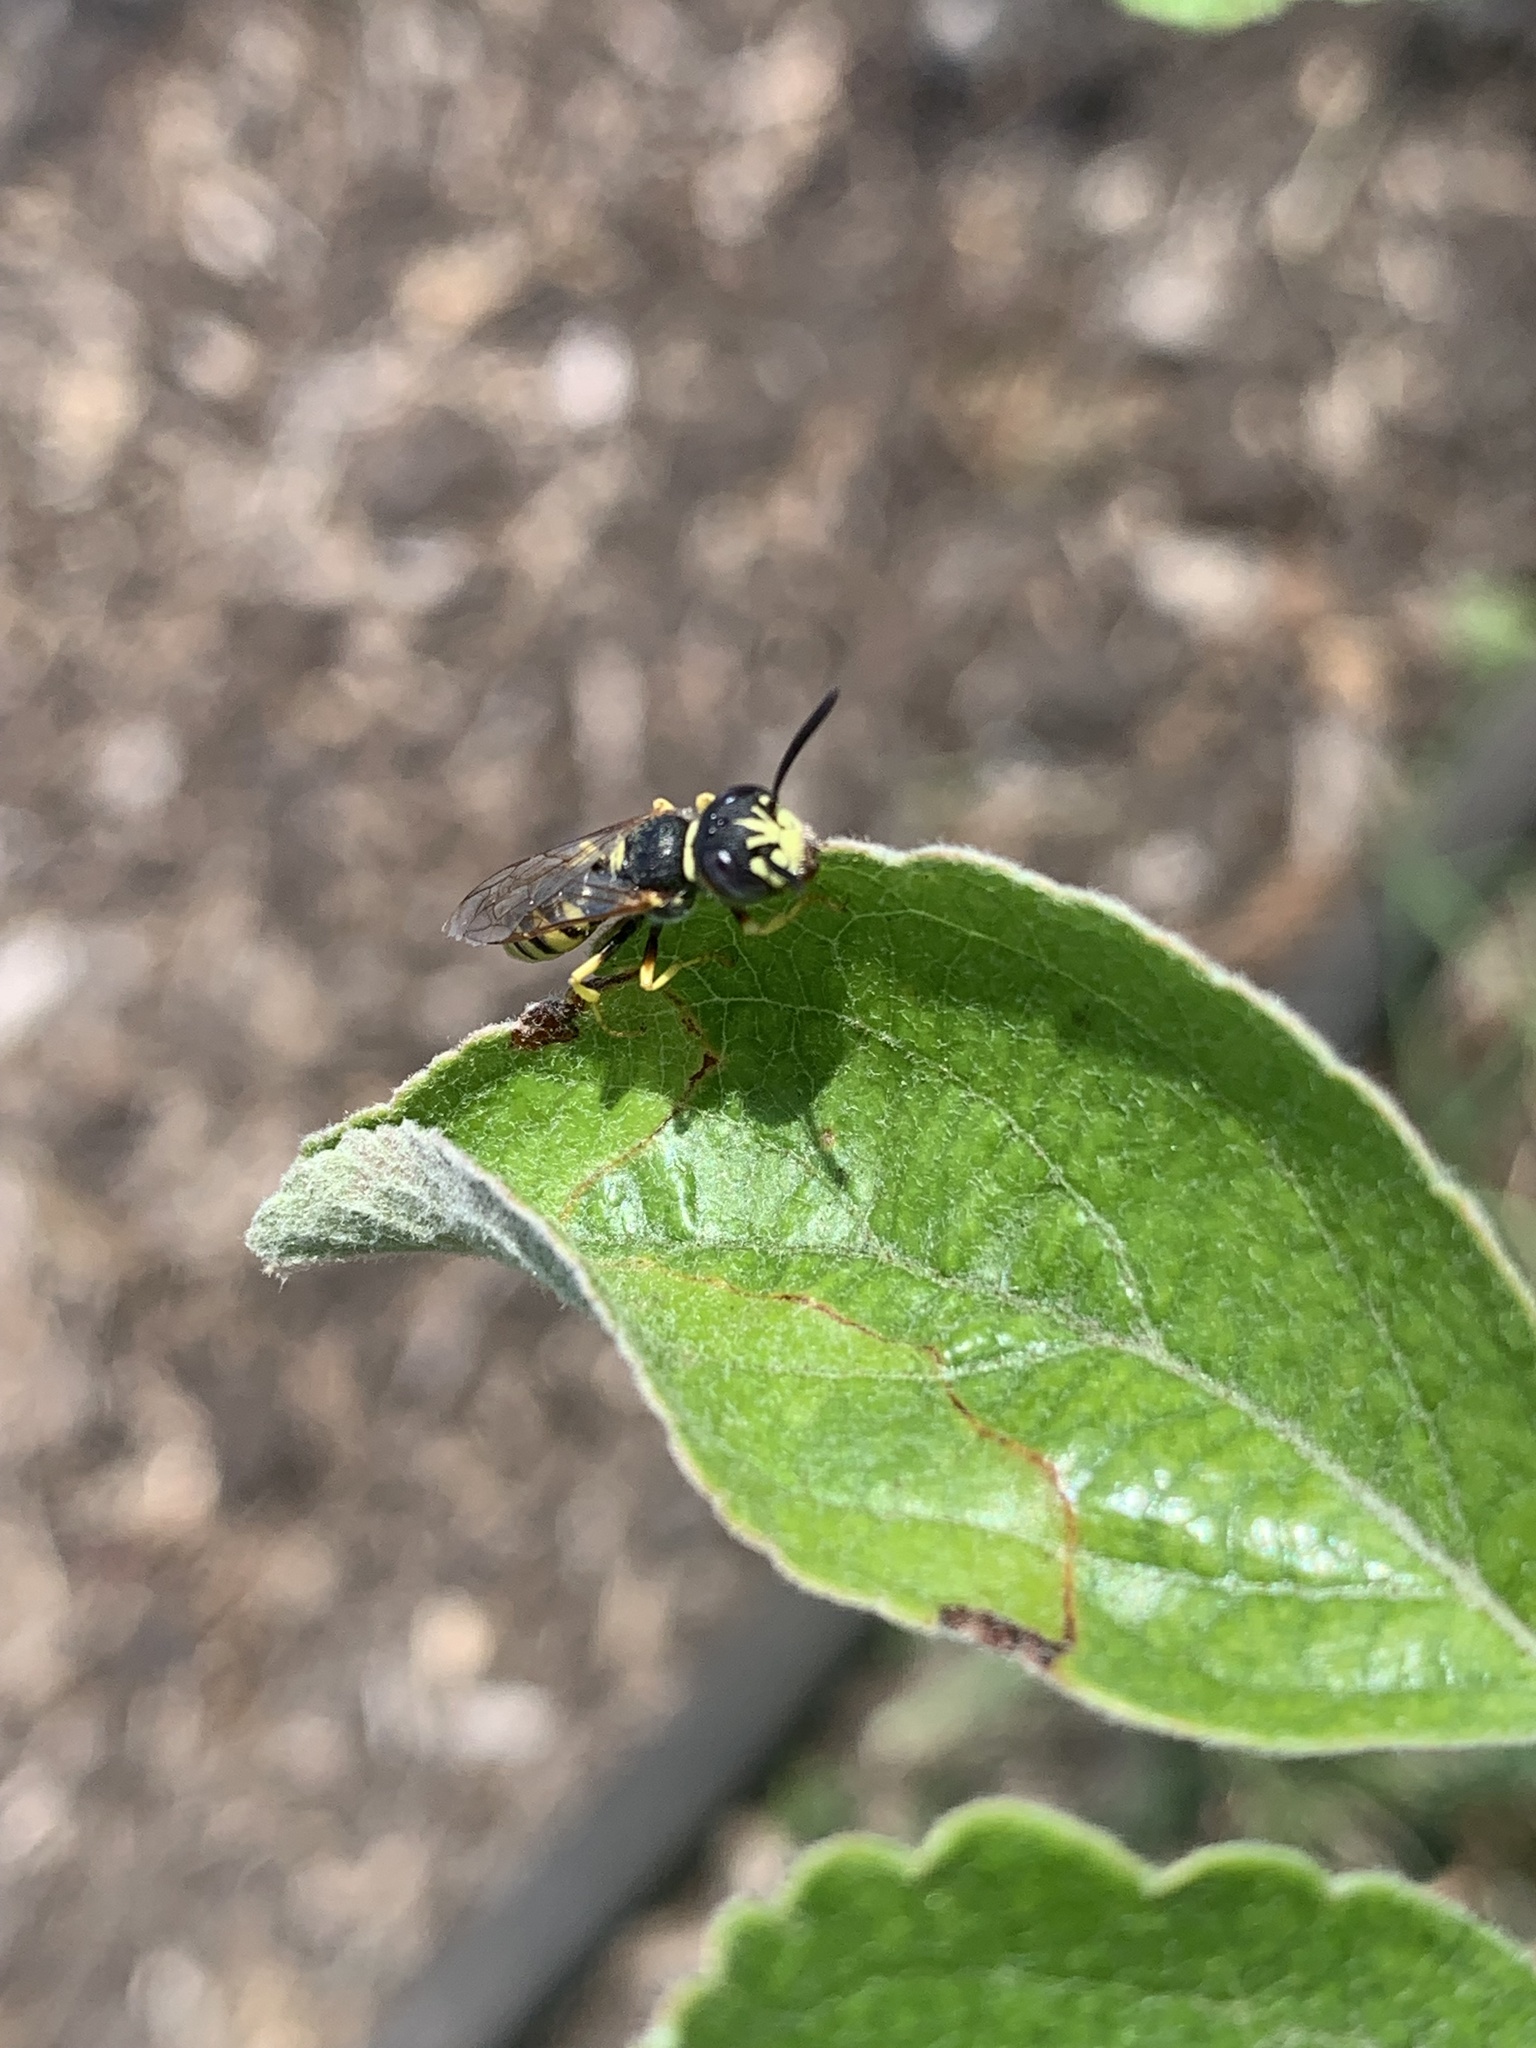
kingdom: Animalia
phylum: Arthropoda
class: Insecta
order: Hymenoptera
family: Crabronidae
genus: Philanthus
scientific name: Philanthus triangulum
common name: Bee wolf
